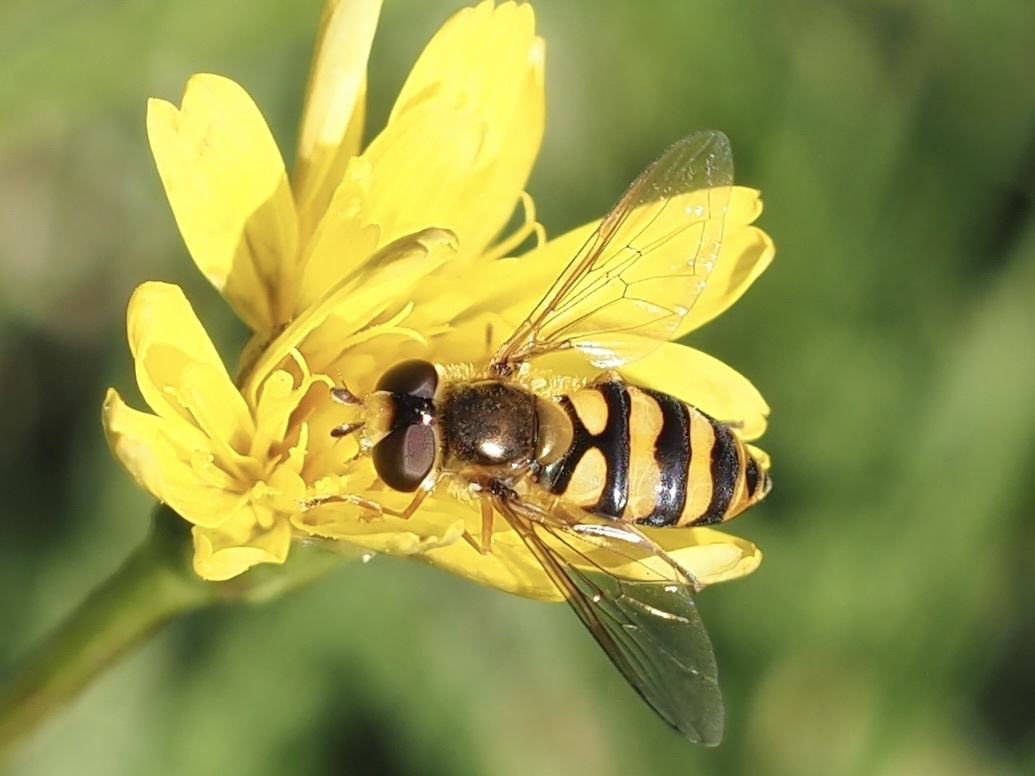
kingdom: Animalia
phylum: Arthropoda
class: Insecta
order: Diptera
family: Syrphidae
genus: Eupeodes
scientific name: Eupeodes latifasciatus
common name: Variable aphideater
